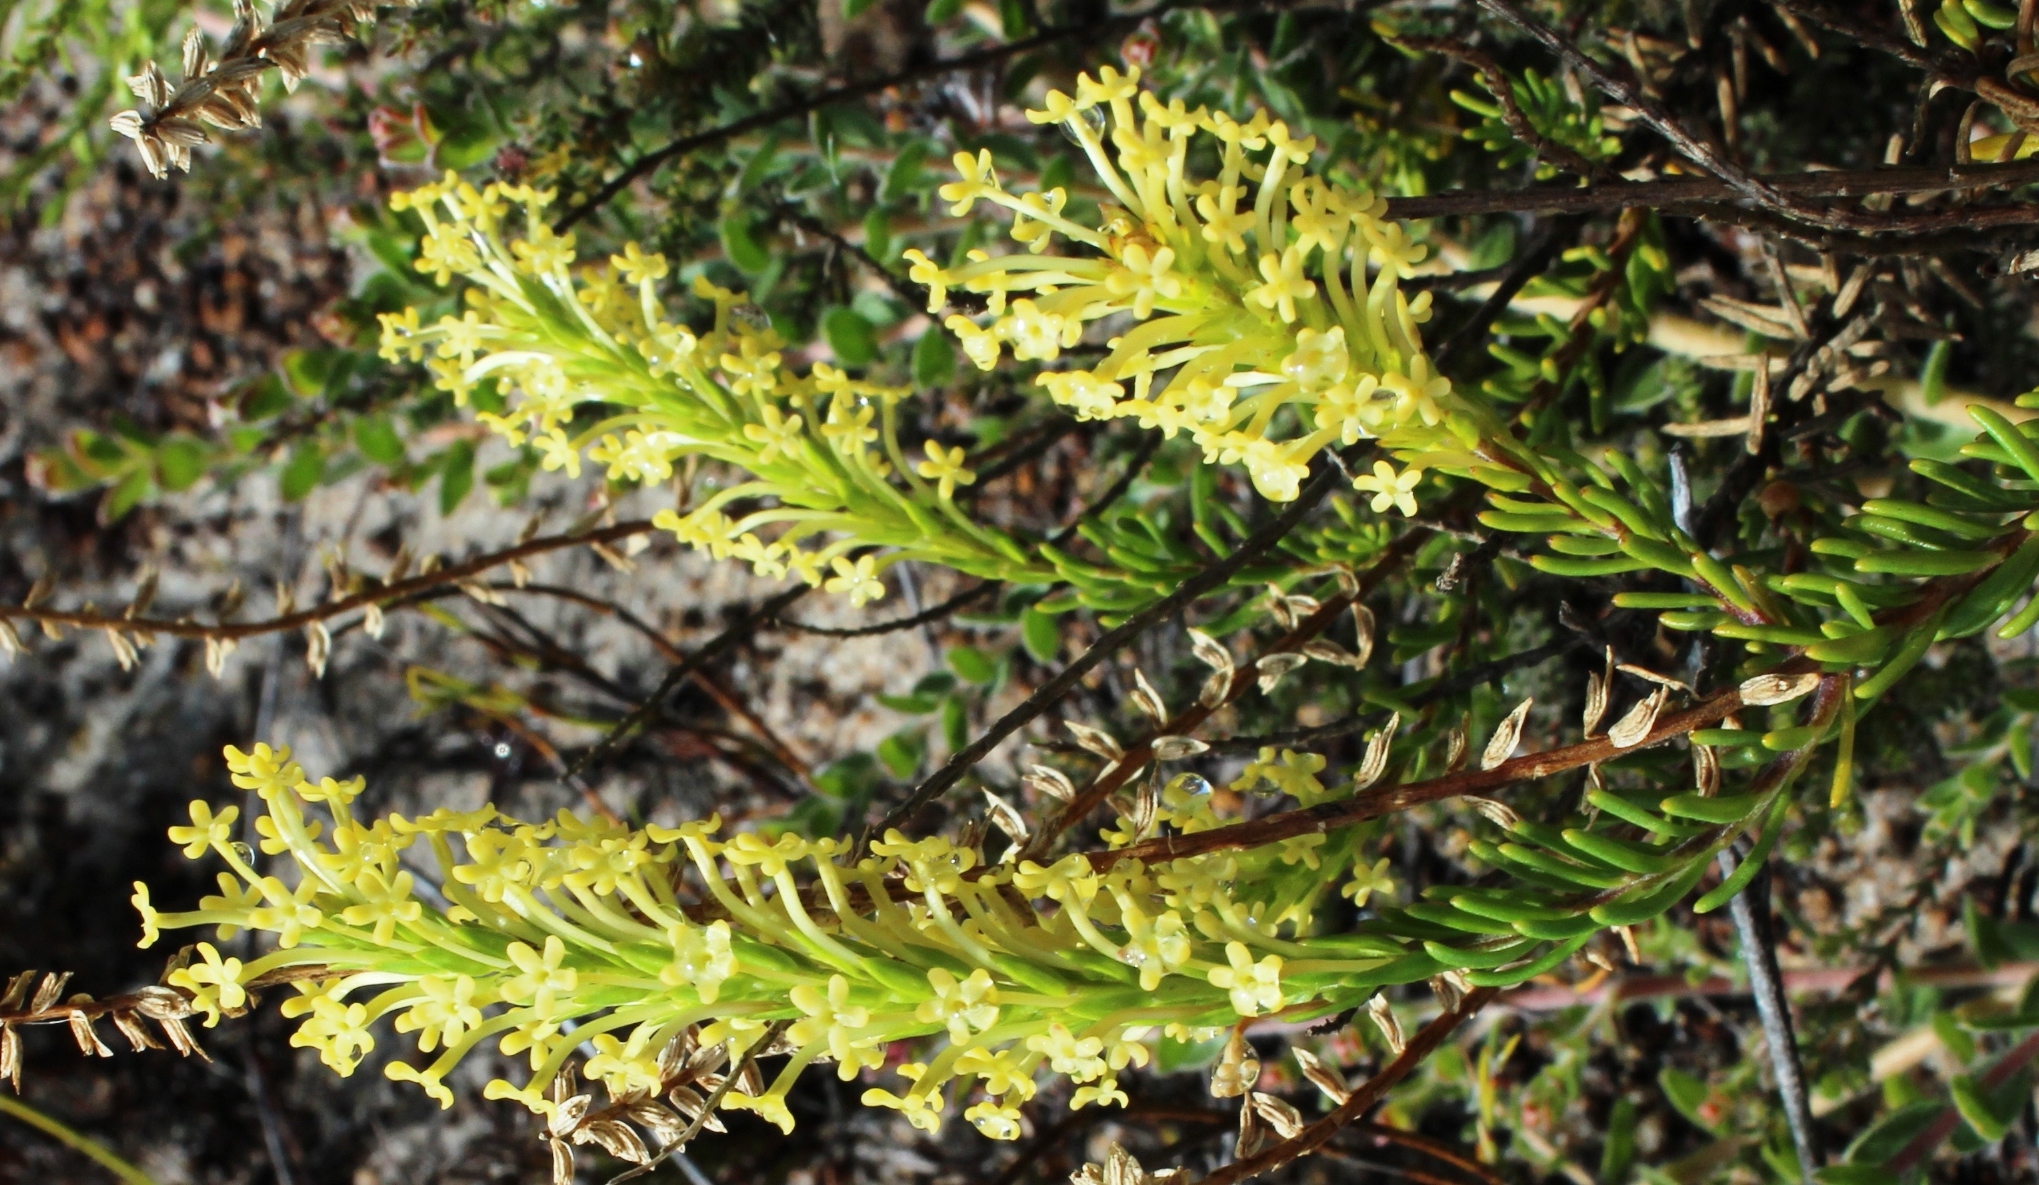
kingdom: Plantae
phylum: Tracheophyta
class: Magnoliopsida
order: Lamiales
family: Scrophulariaceae
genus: Microdon
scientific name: Microdon dubius
